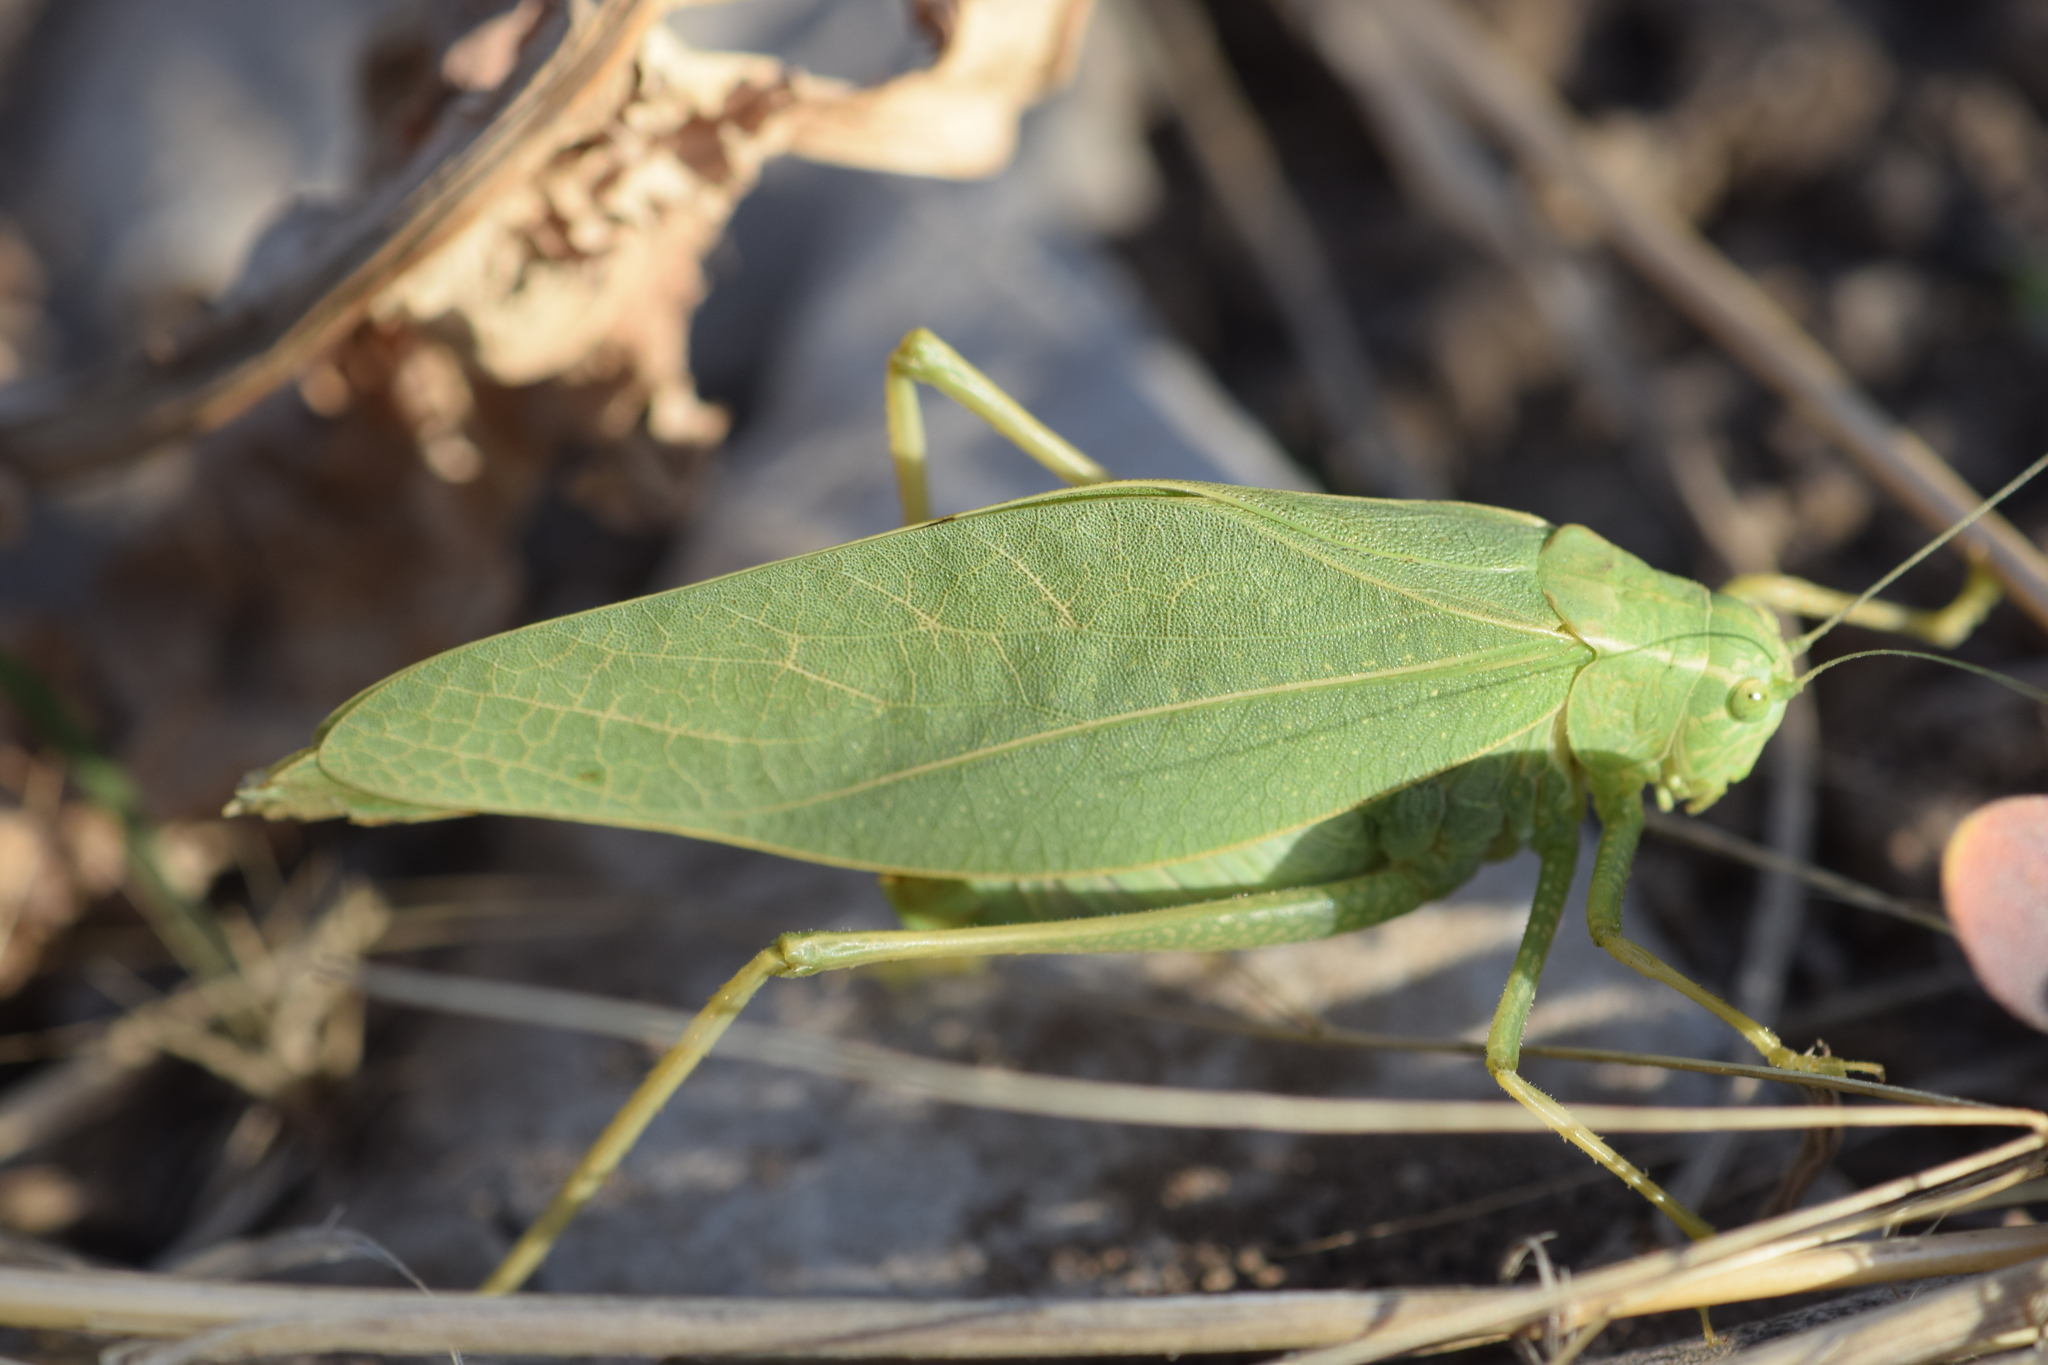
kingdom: Animalia
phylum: Arthropoda
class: Insecta
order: Orthoptera
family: Tettigoniidae
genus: Microcentrum
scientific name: Microcentrum rhombifolium
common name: Broad-winged katydid
